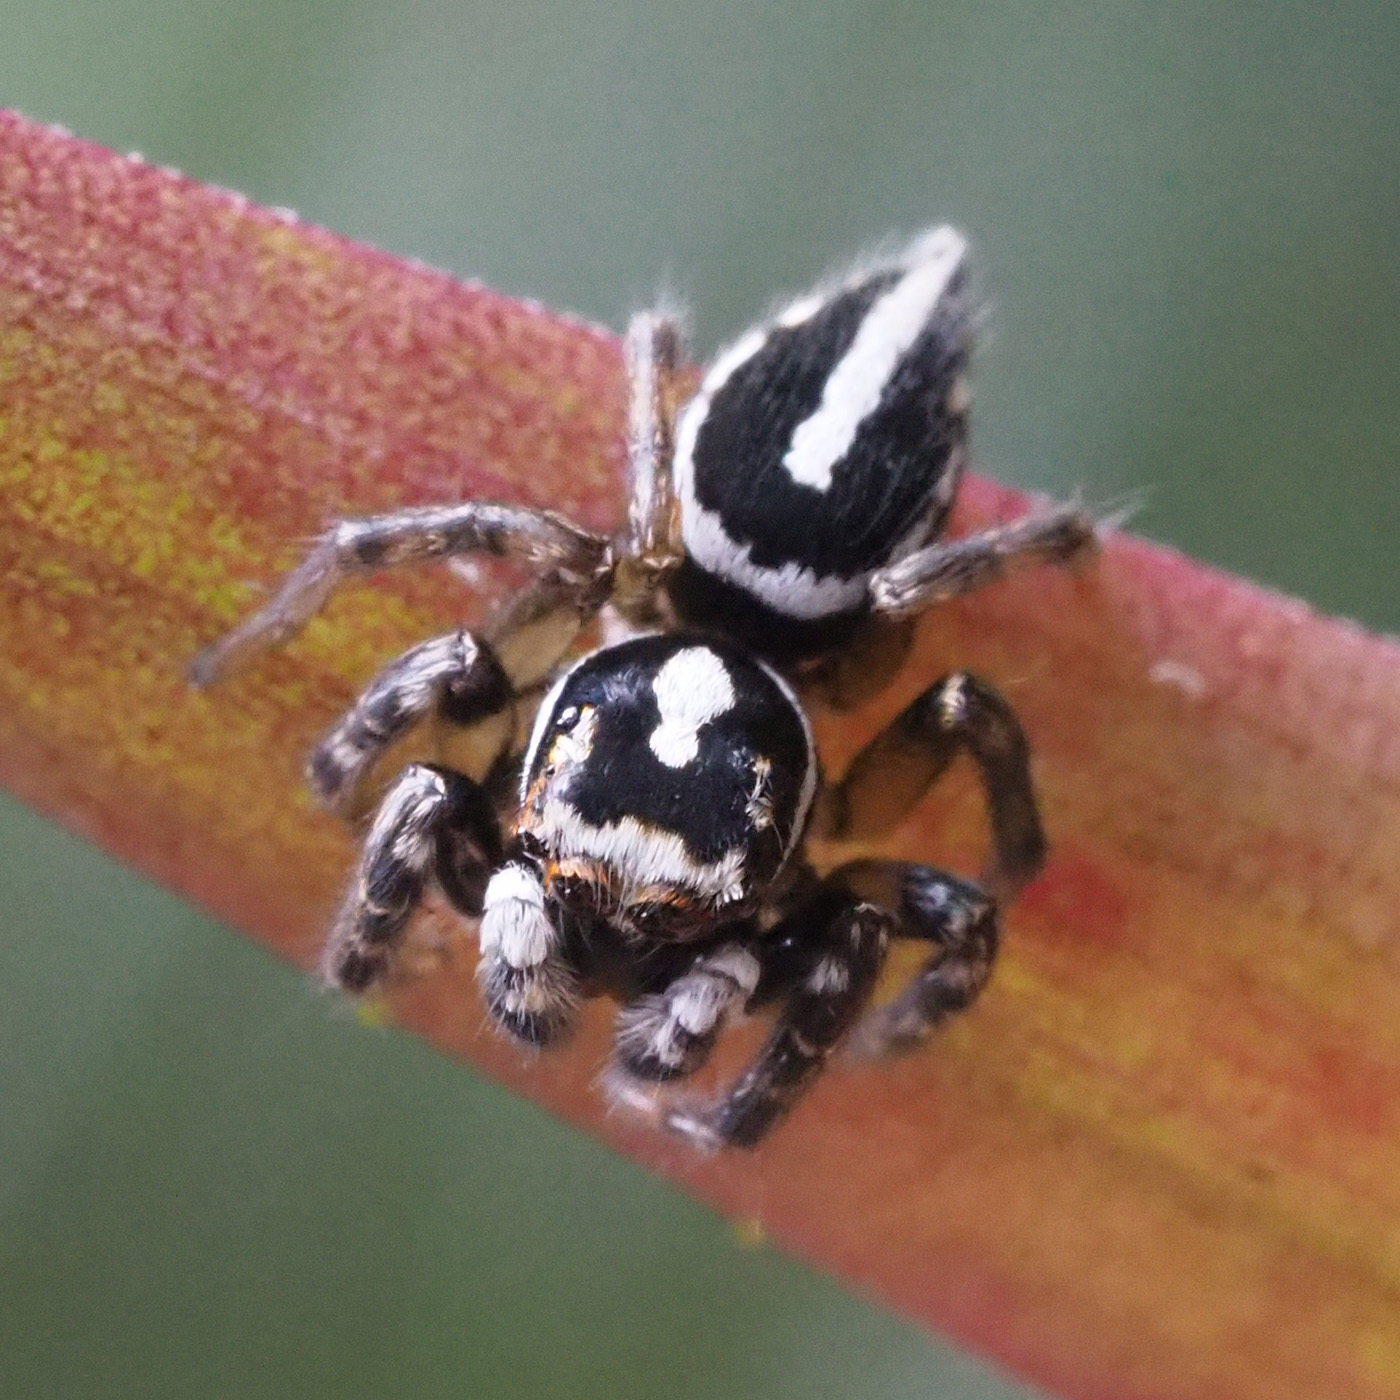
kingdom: Animalia
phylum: Arthropoda
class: Arachnida
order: Araneae
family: Salticidae
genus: Freya
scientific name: Freya decorata
